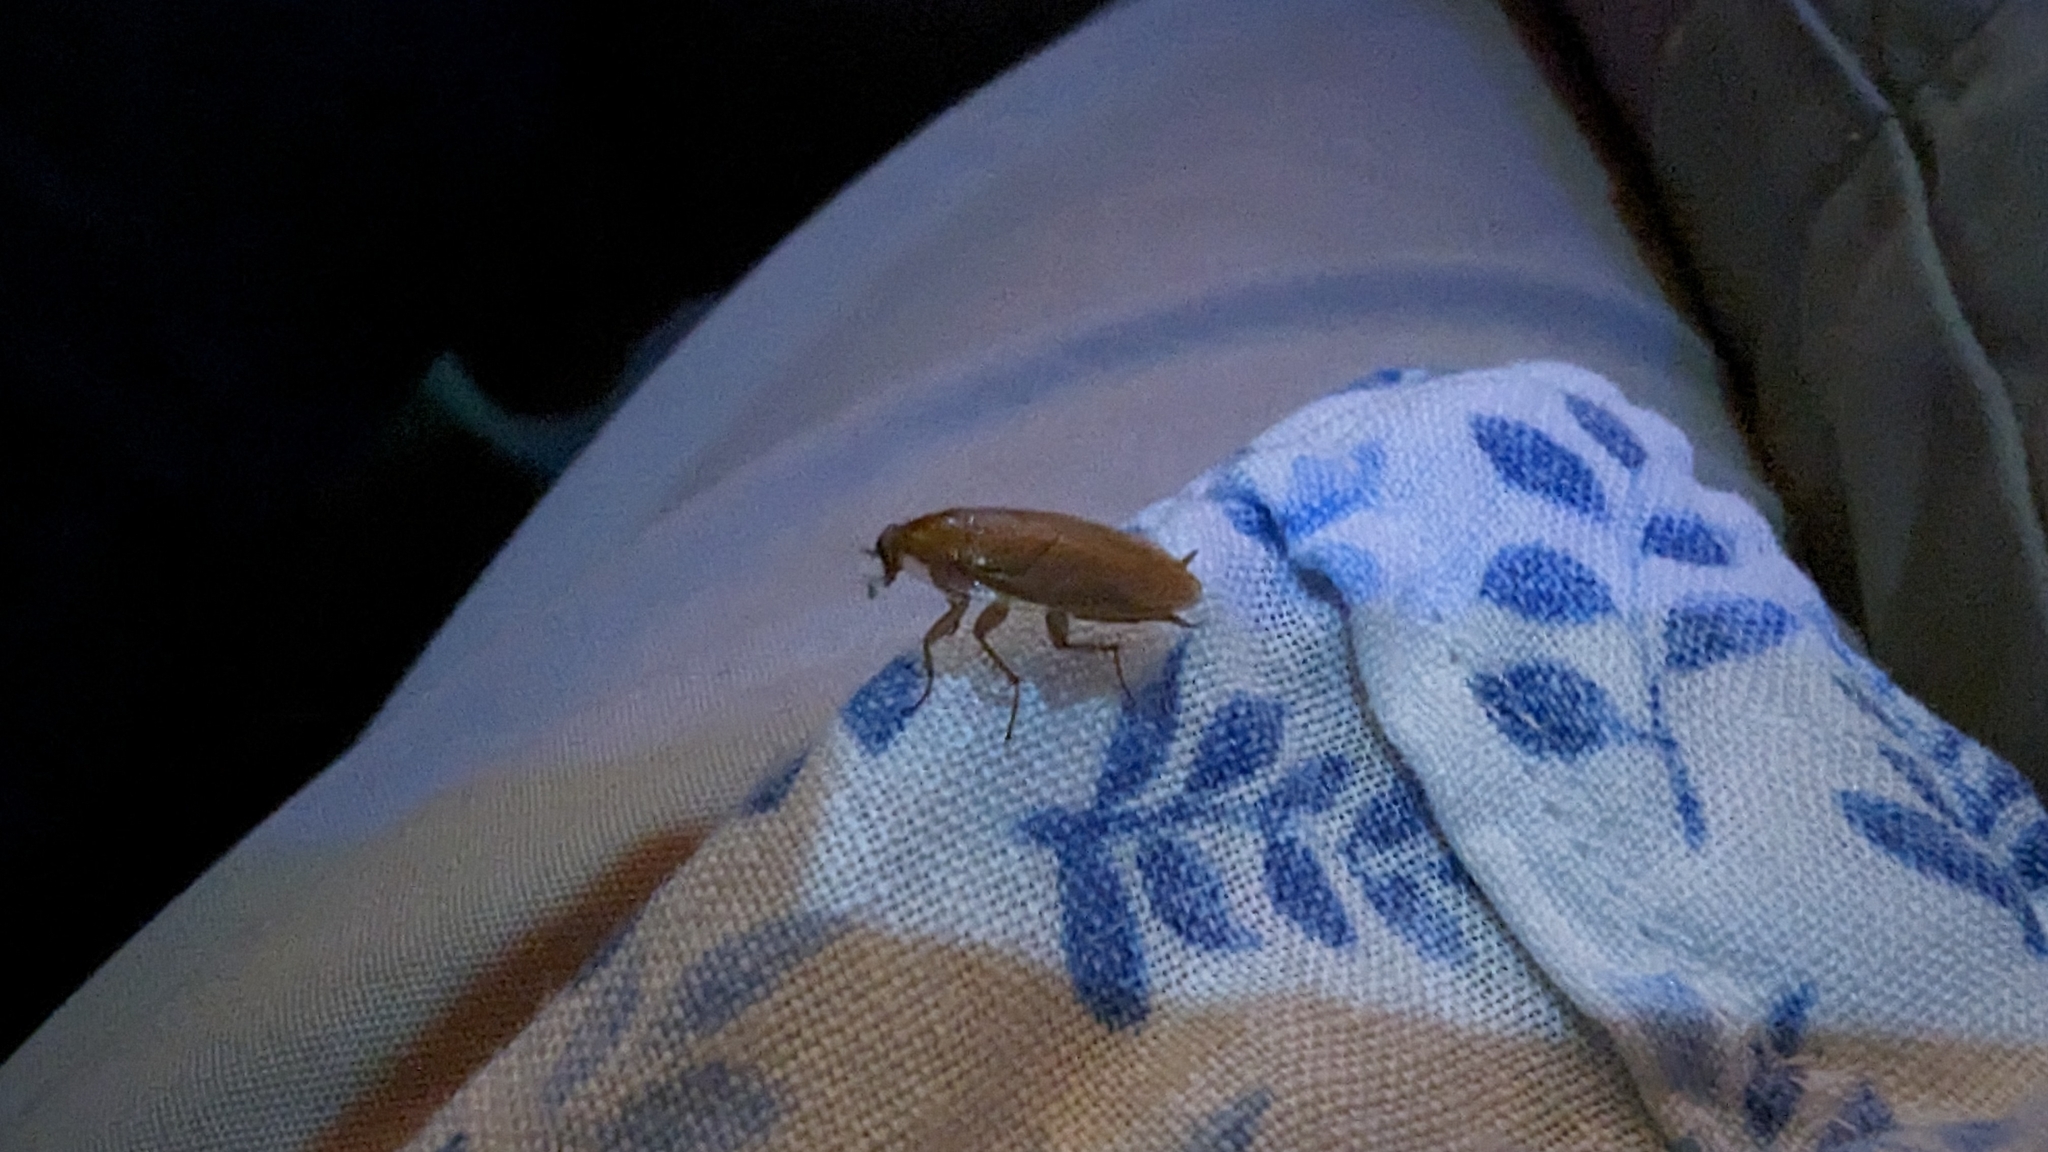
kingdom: Animalia
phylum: Arthropoda
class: Insecta
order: Blattodea
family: Ectobiidae
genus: Ectobius
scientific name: Ectobius pallidus
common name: Tawny cockroach
